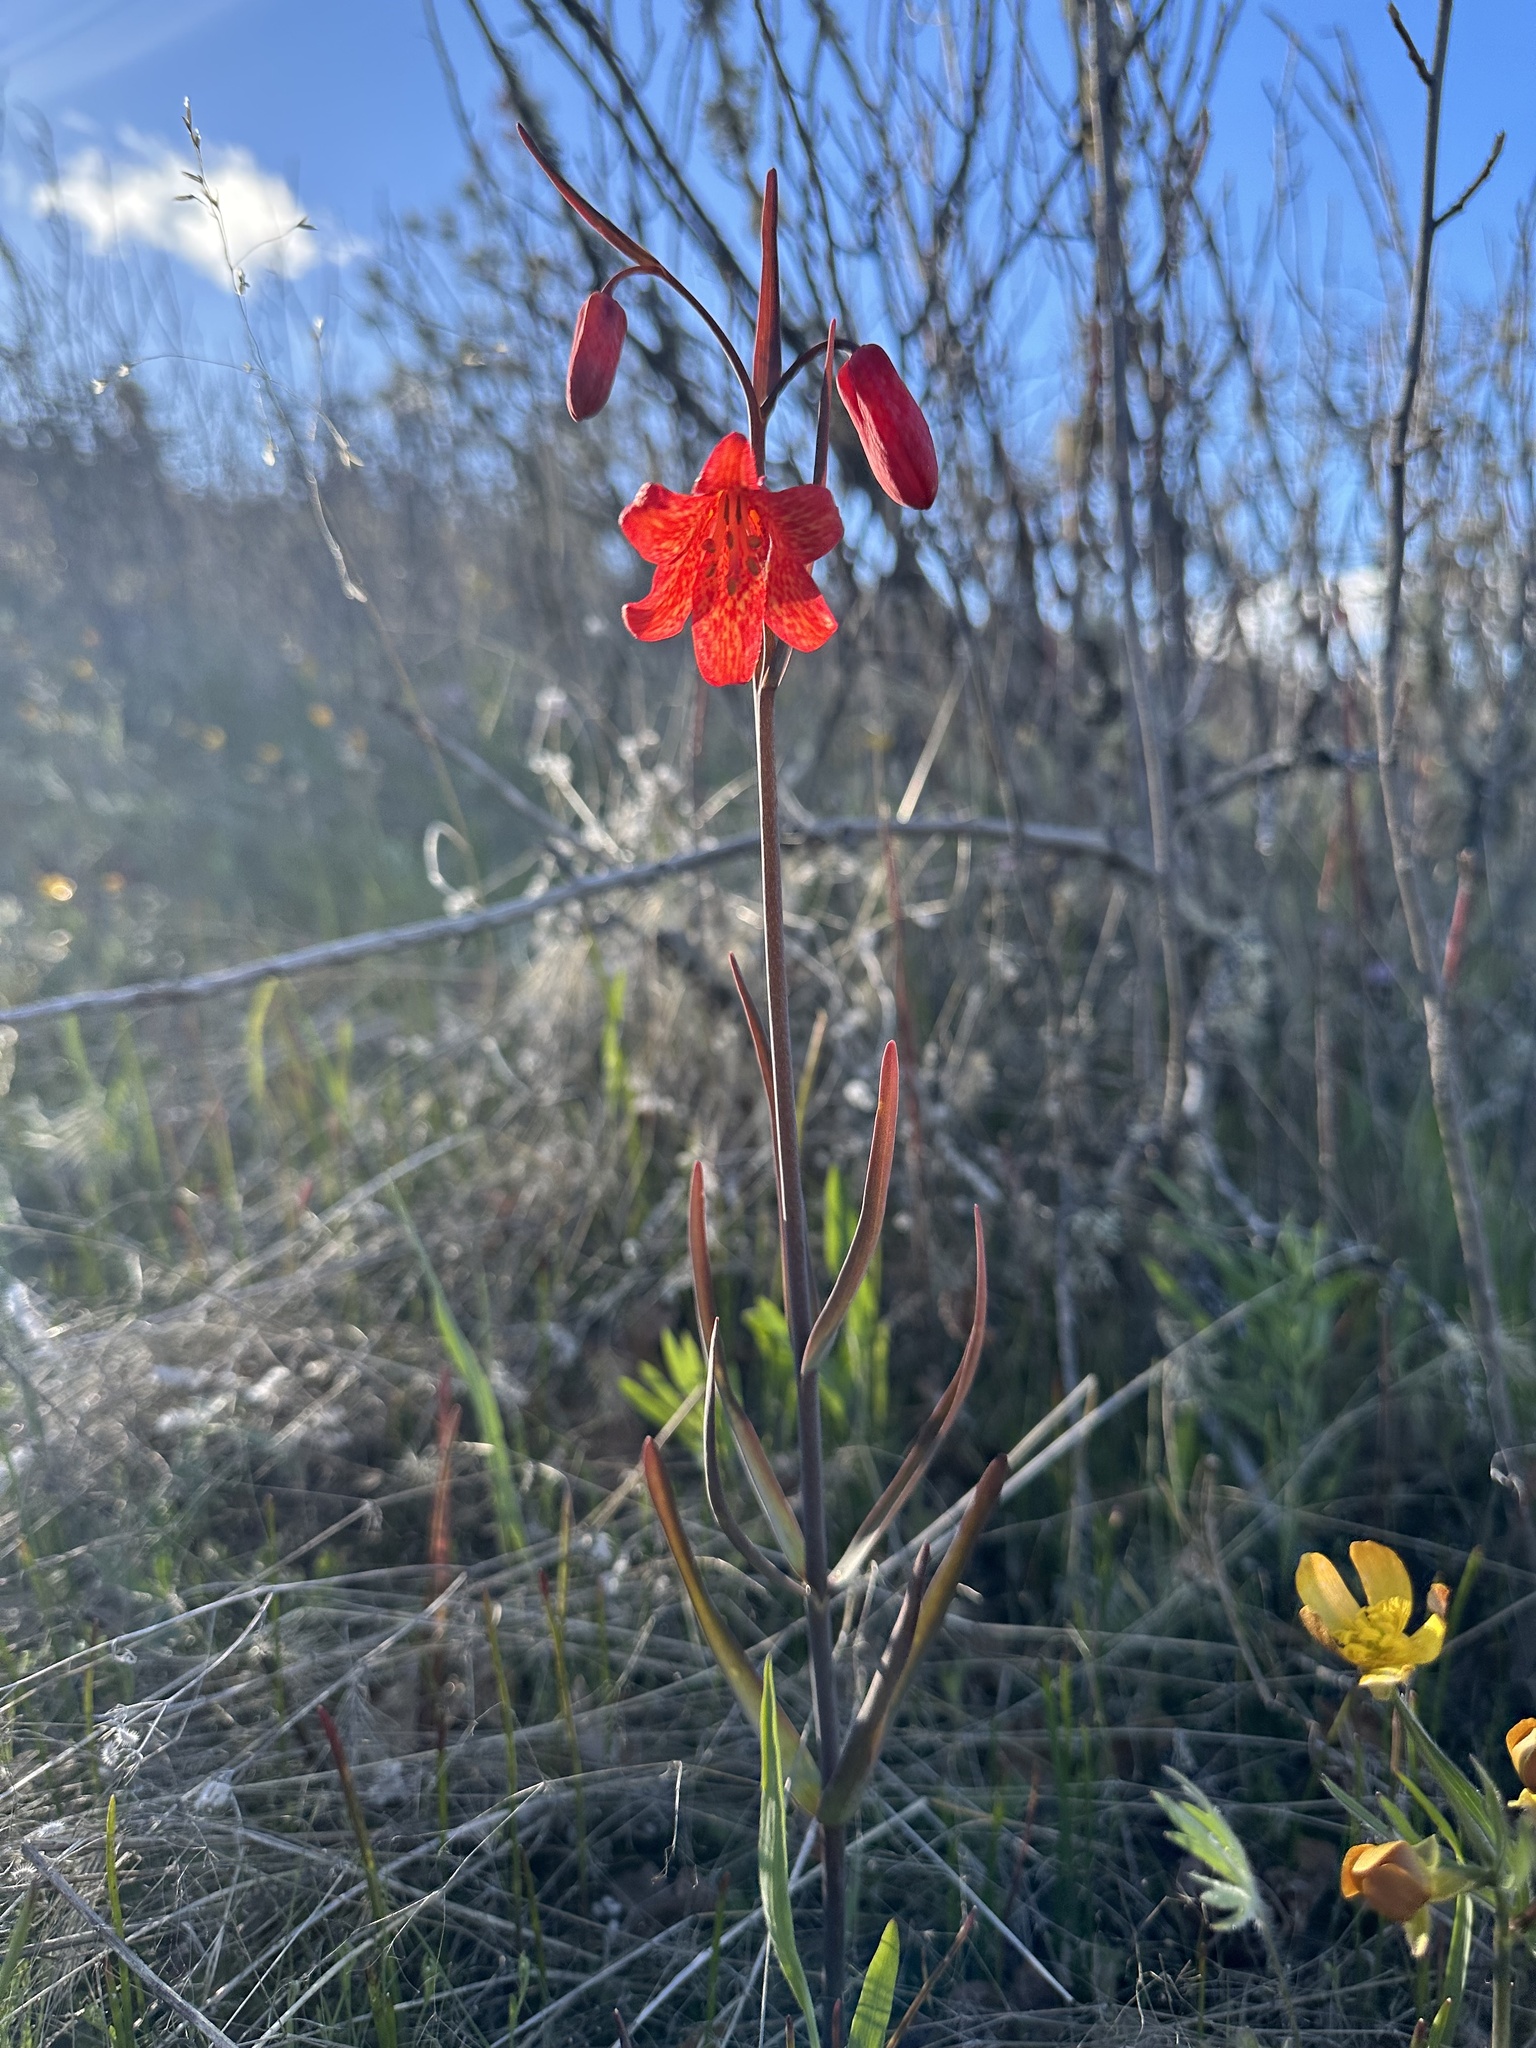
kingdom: Plantae
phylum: Tracheophyta
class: Liliopsida
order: Liliales
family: Liliaceae
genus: Fritillaria
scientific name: Fritillaria recurva
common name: Scarlet fritillary
